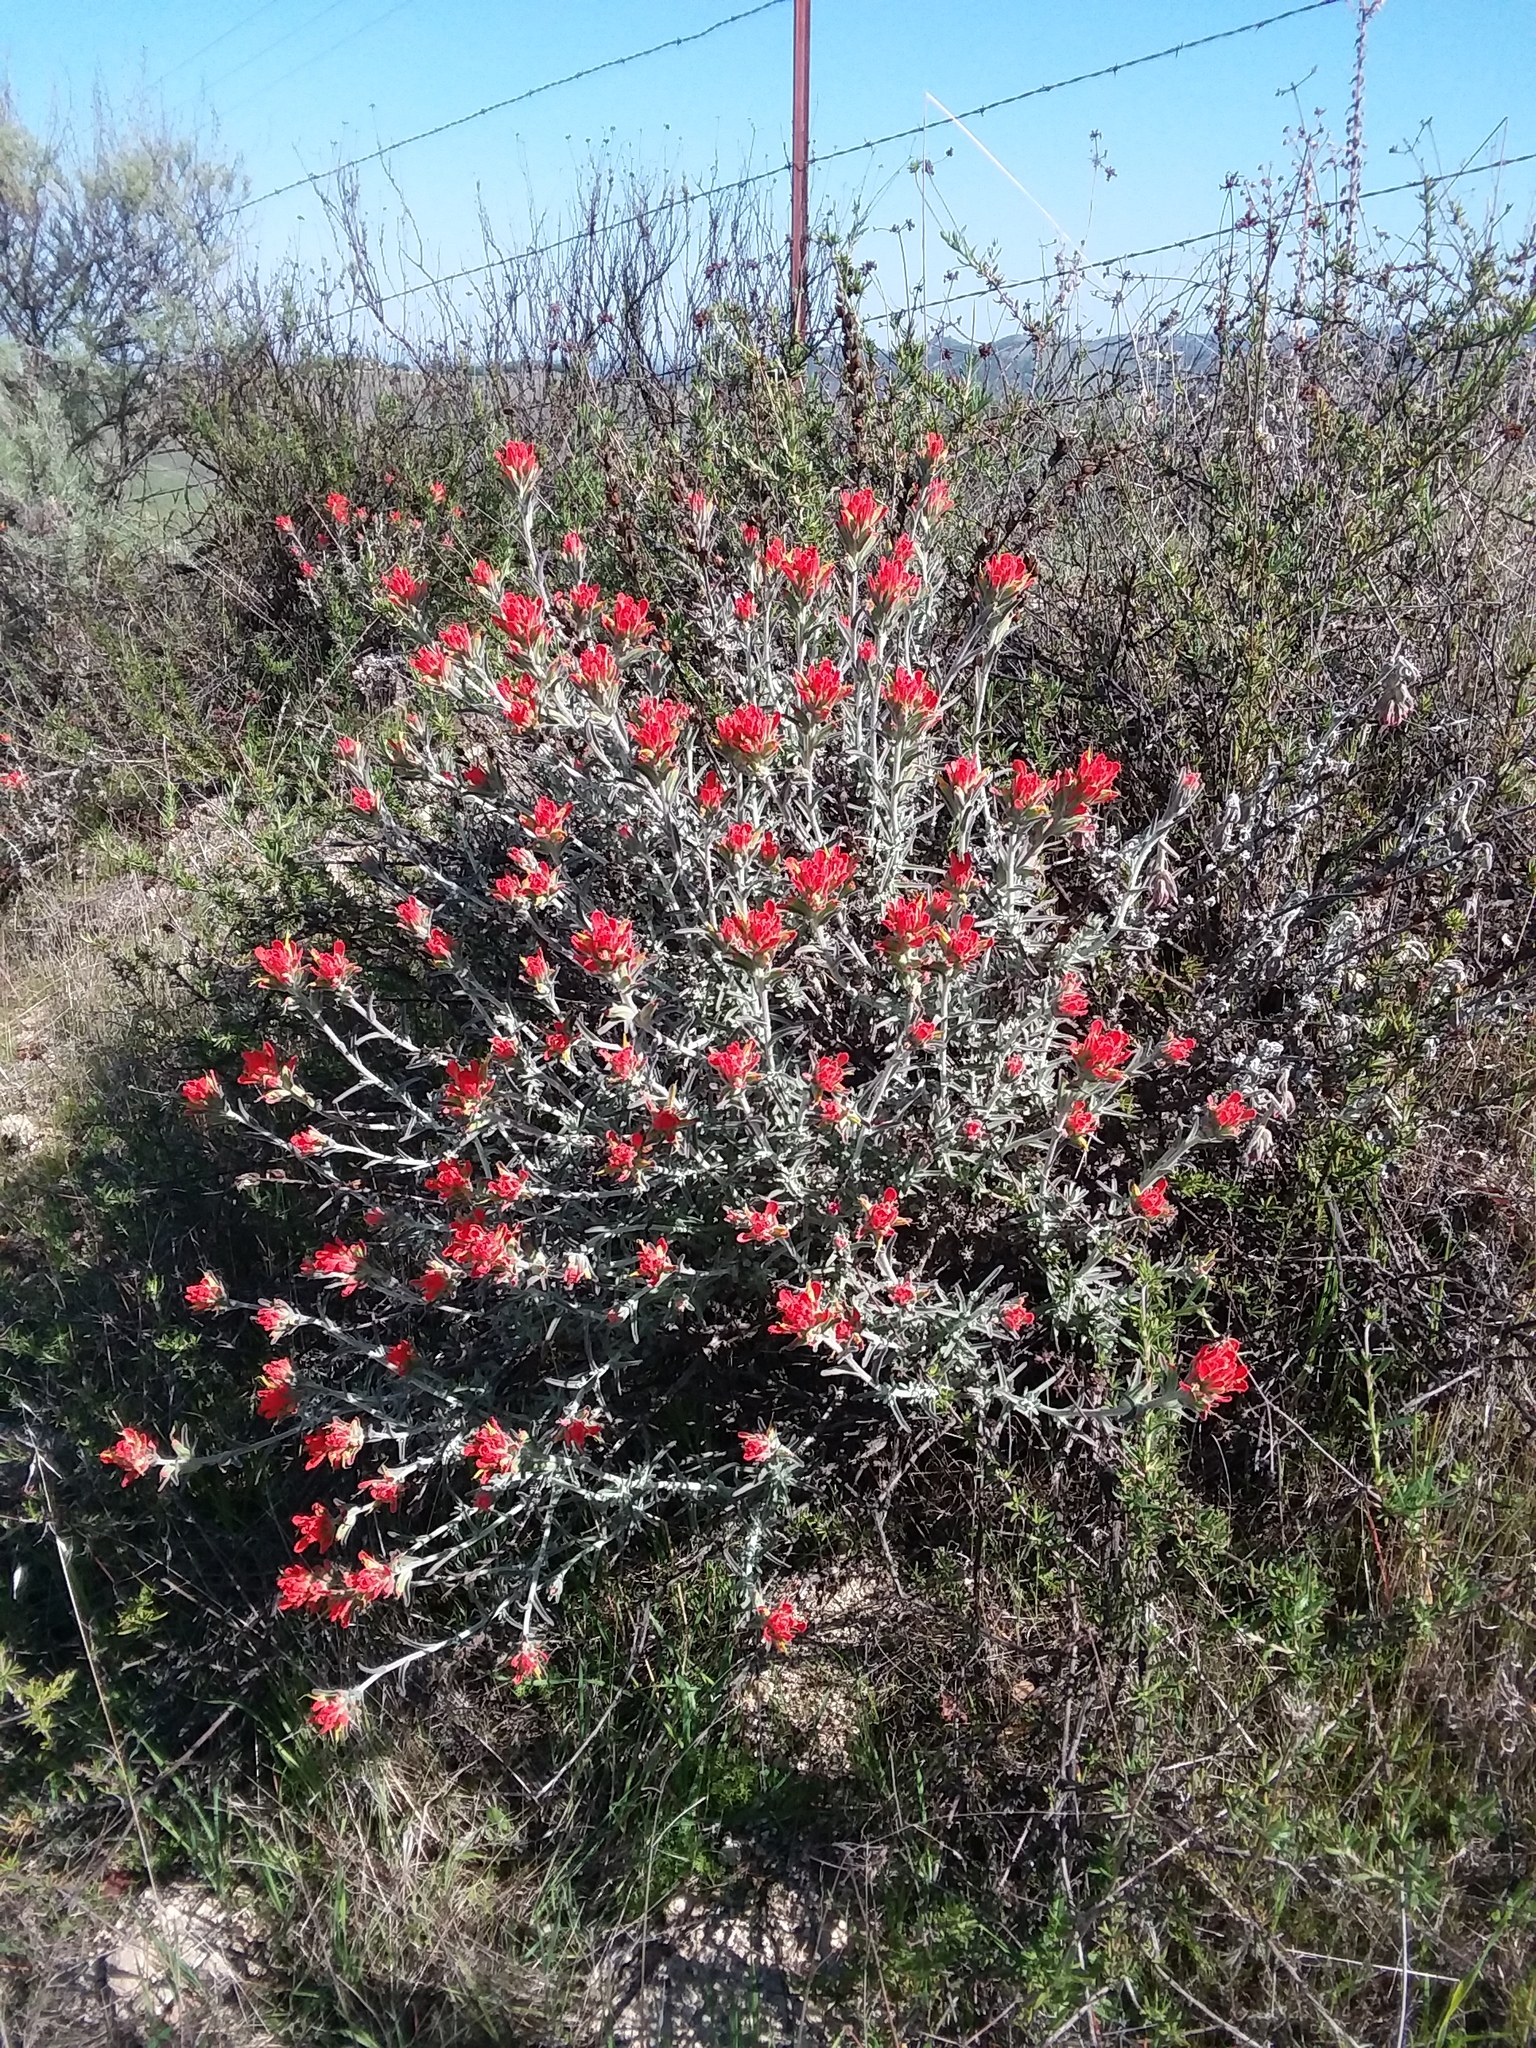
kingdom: Plantae
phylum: Tracheophyta
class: Magnoliopsida
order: Lamiales
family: Orobanchaceae
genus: Castilleja
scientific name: Castilleja foliolosa
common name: Woolly indian paintbrush
